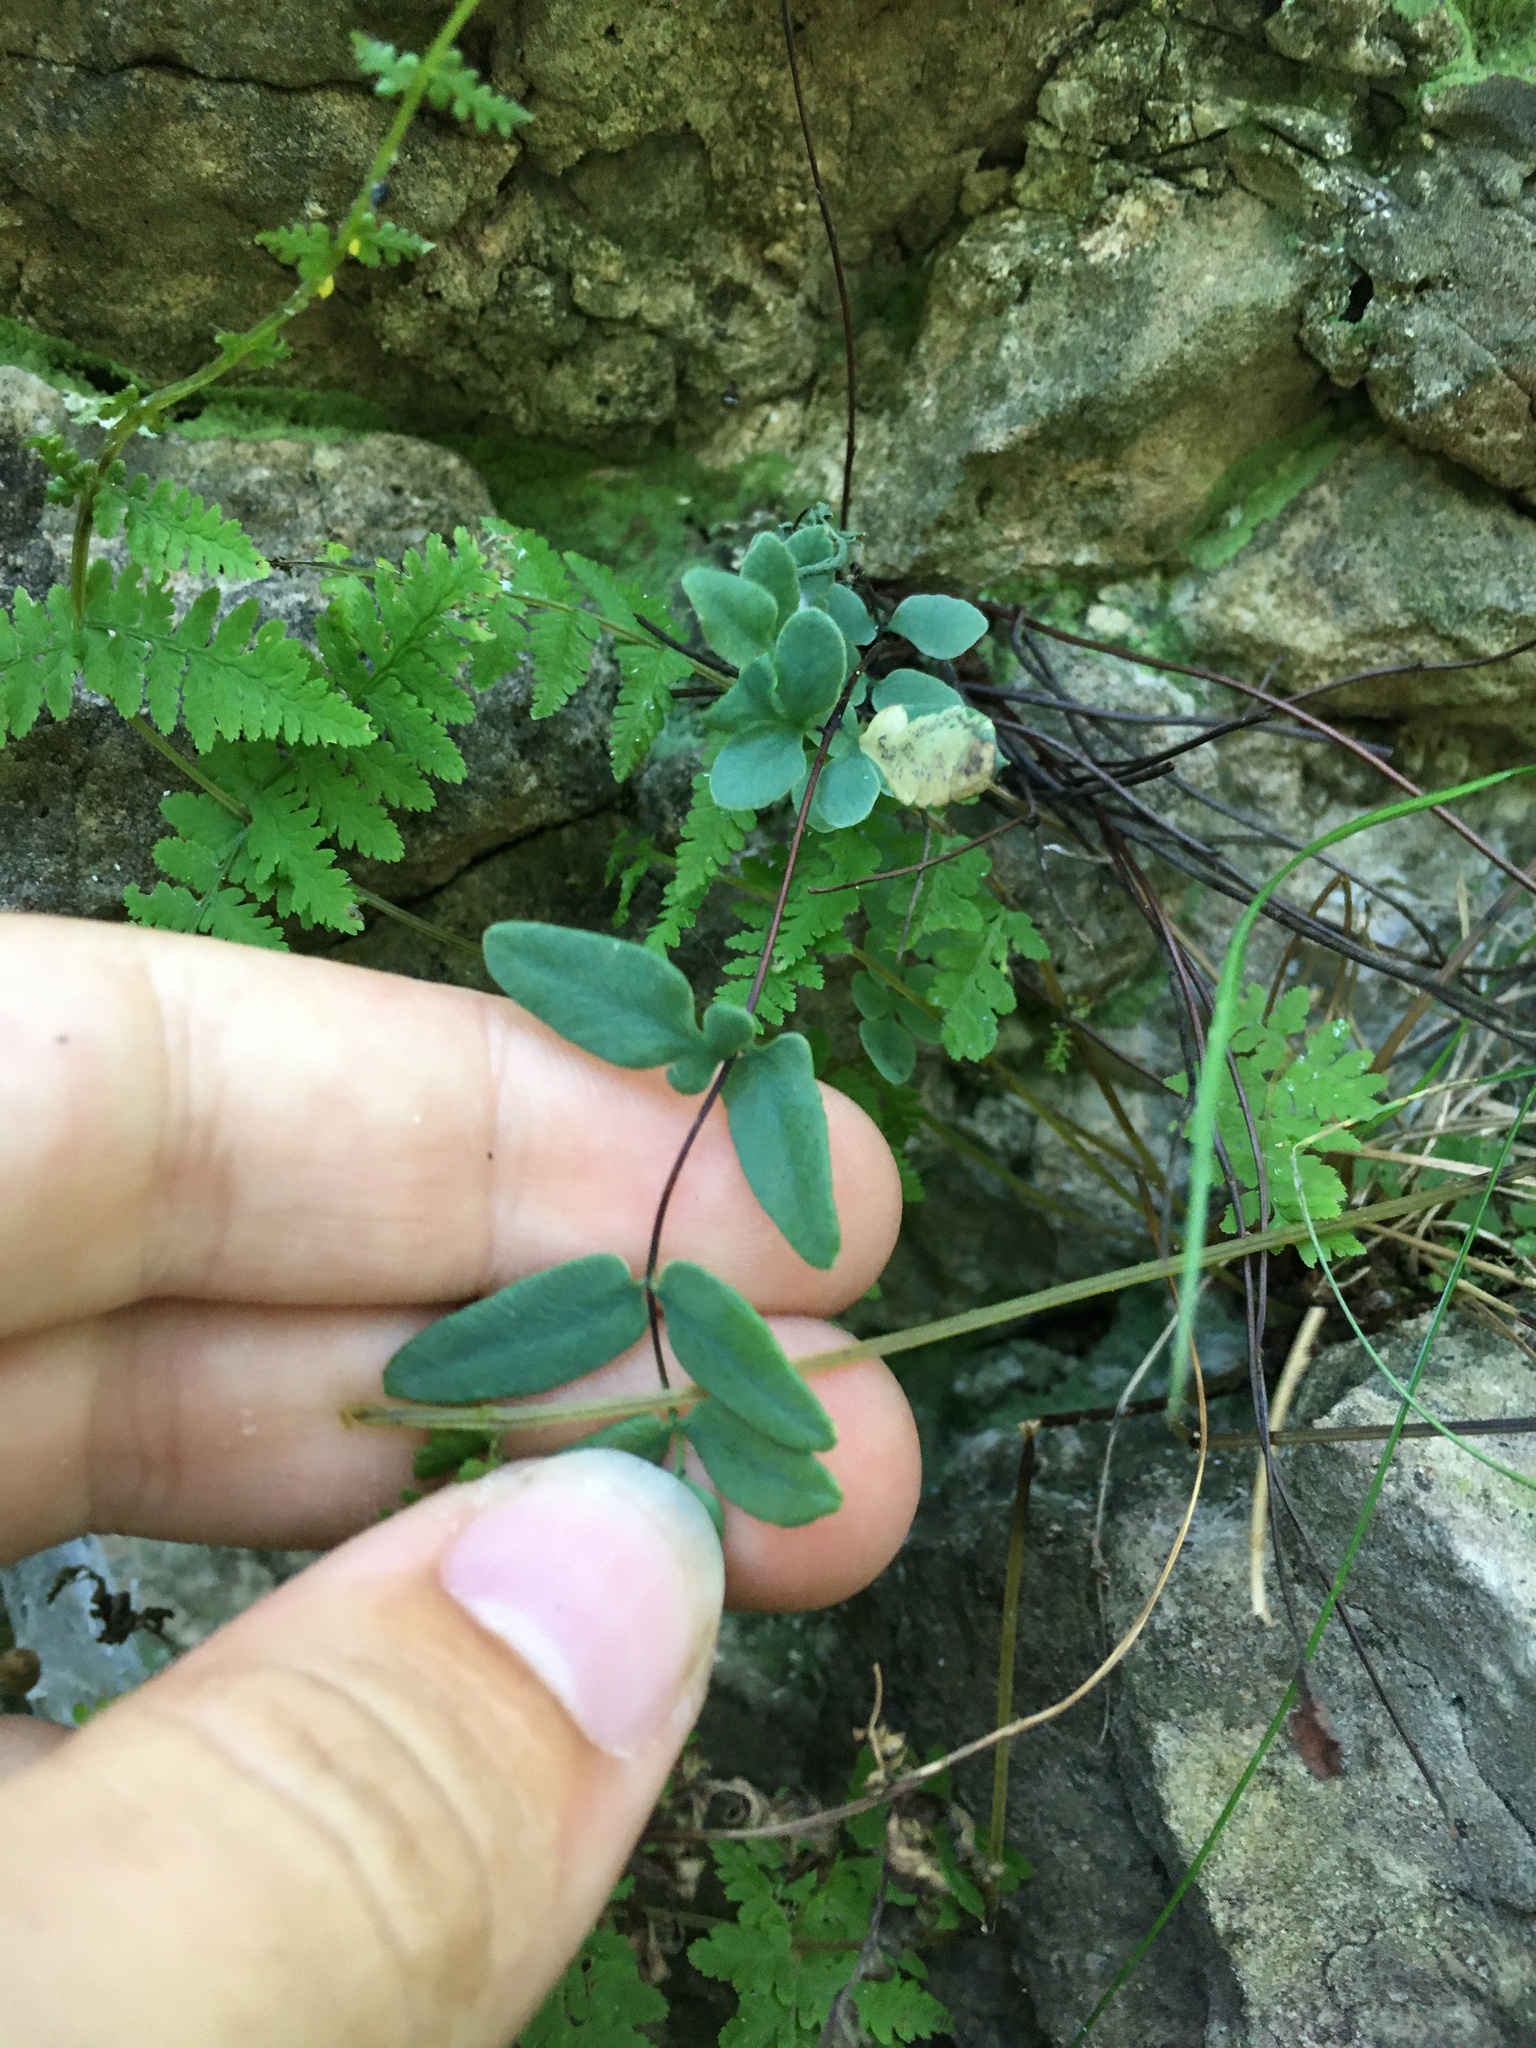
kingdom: Plantae
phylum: Tracheophyta
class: Polypodiopsida
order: Polypodiales
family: Pteridaceae
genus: Pellaea
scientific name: Pellaea glabella
